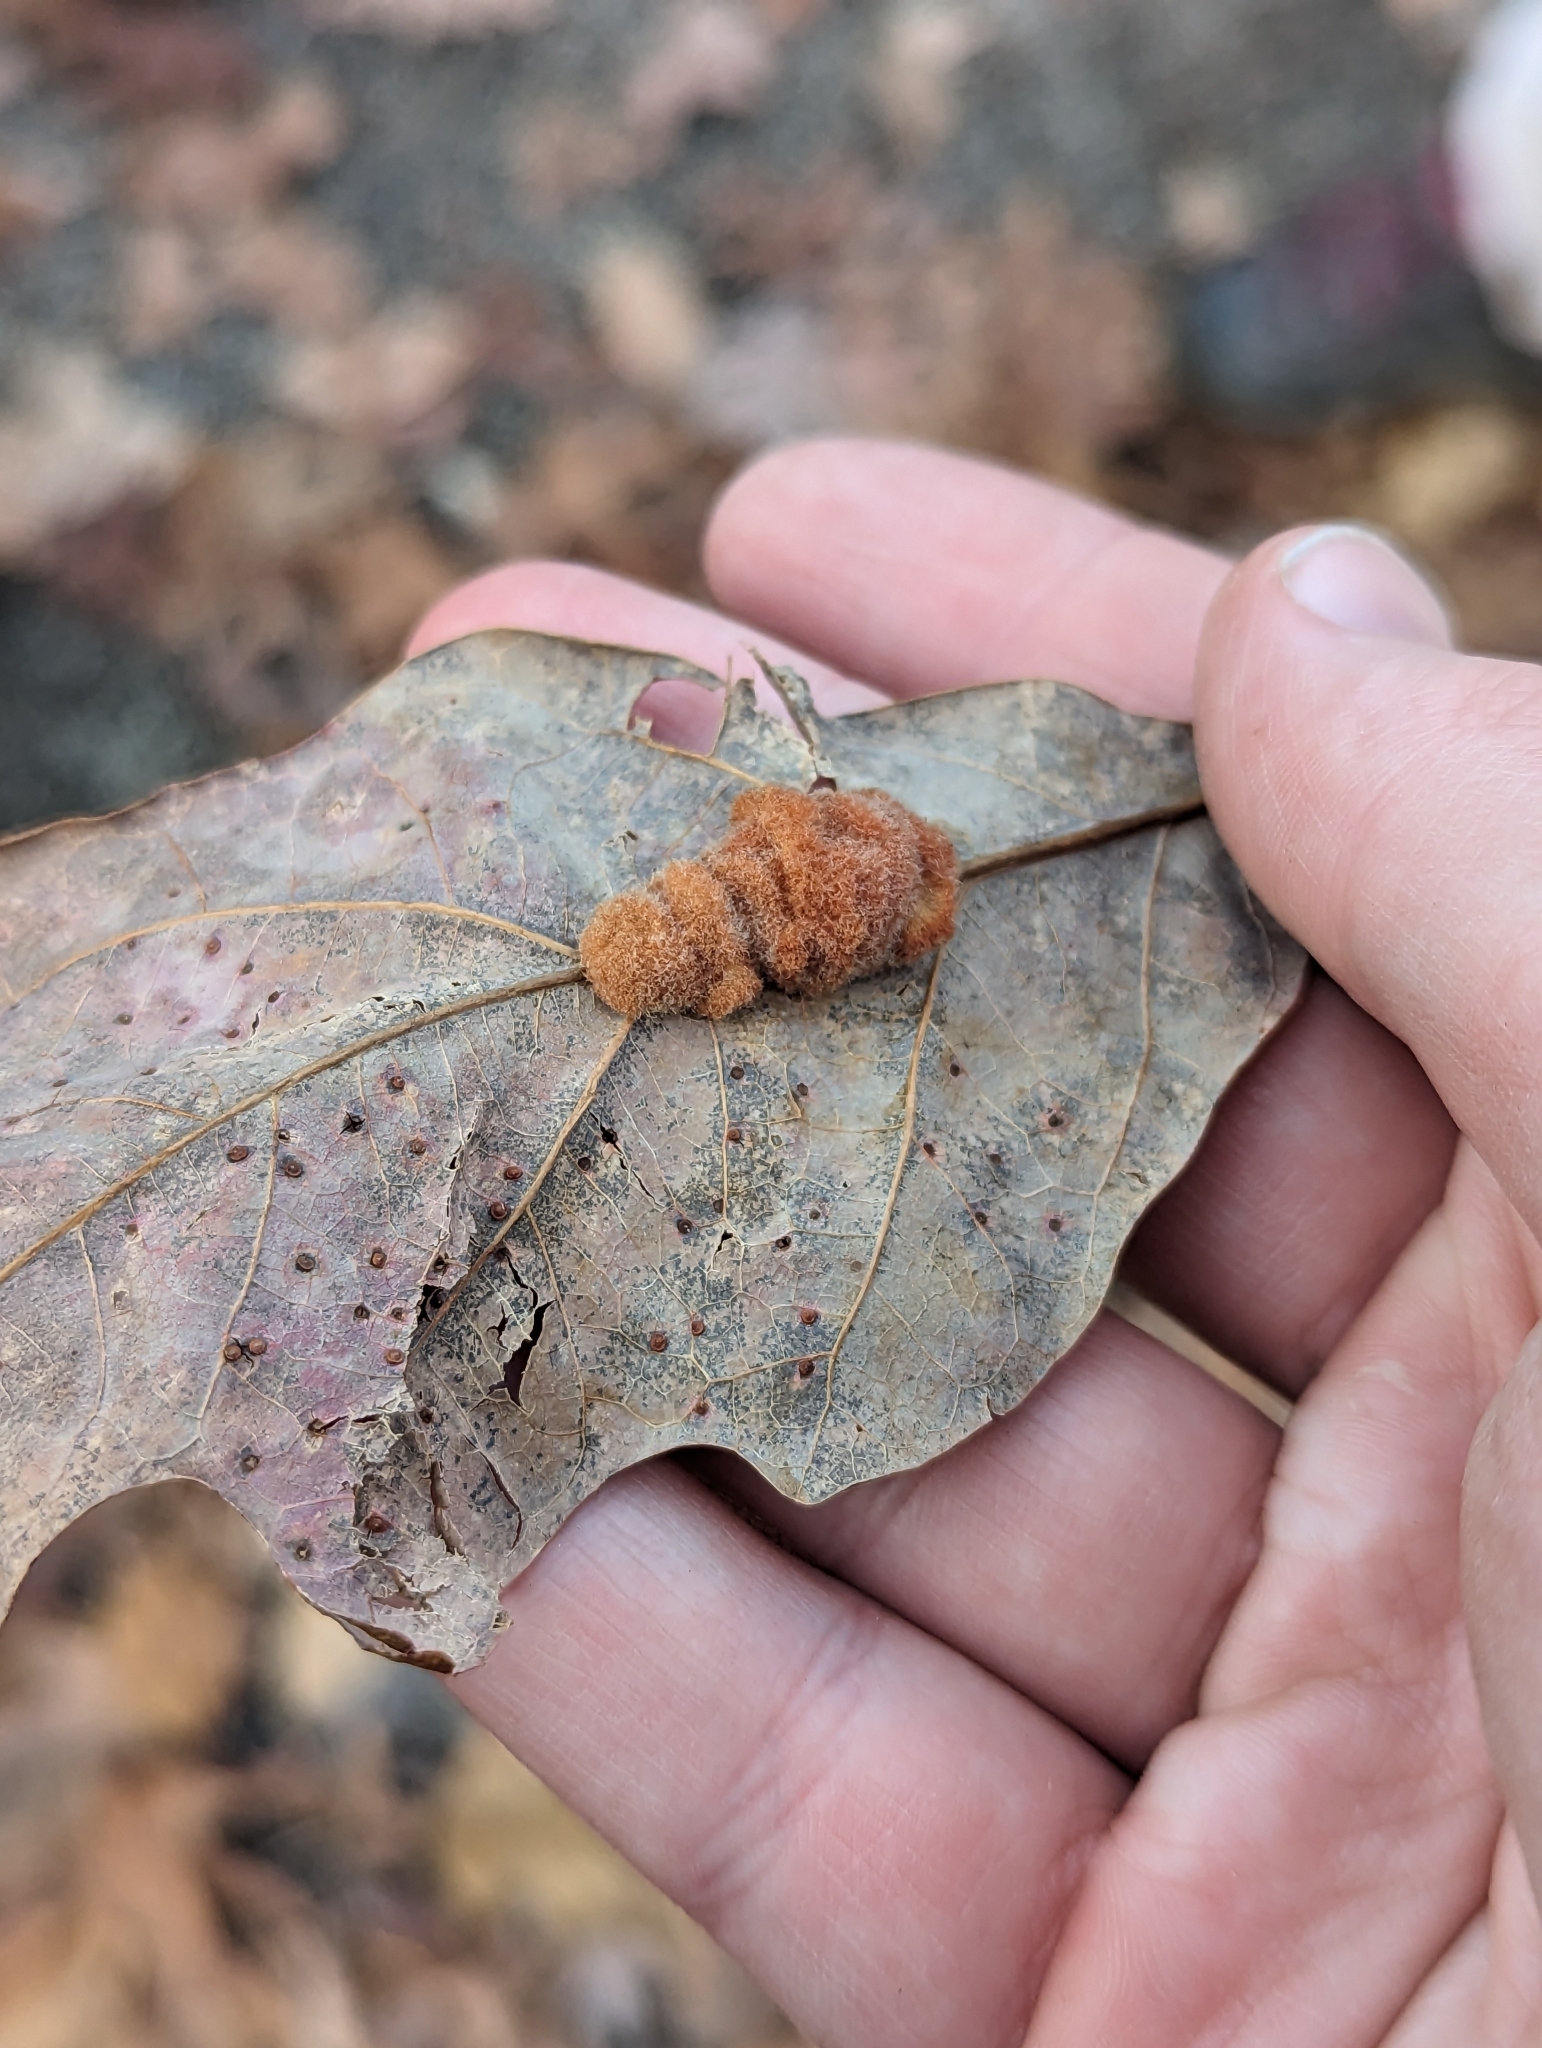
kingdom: Animalia
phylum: Arthropoda
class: Insecta
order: Hymenoptera
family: Cynipidae
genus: Andricus
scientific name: Andricus quercusflocci
